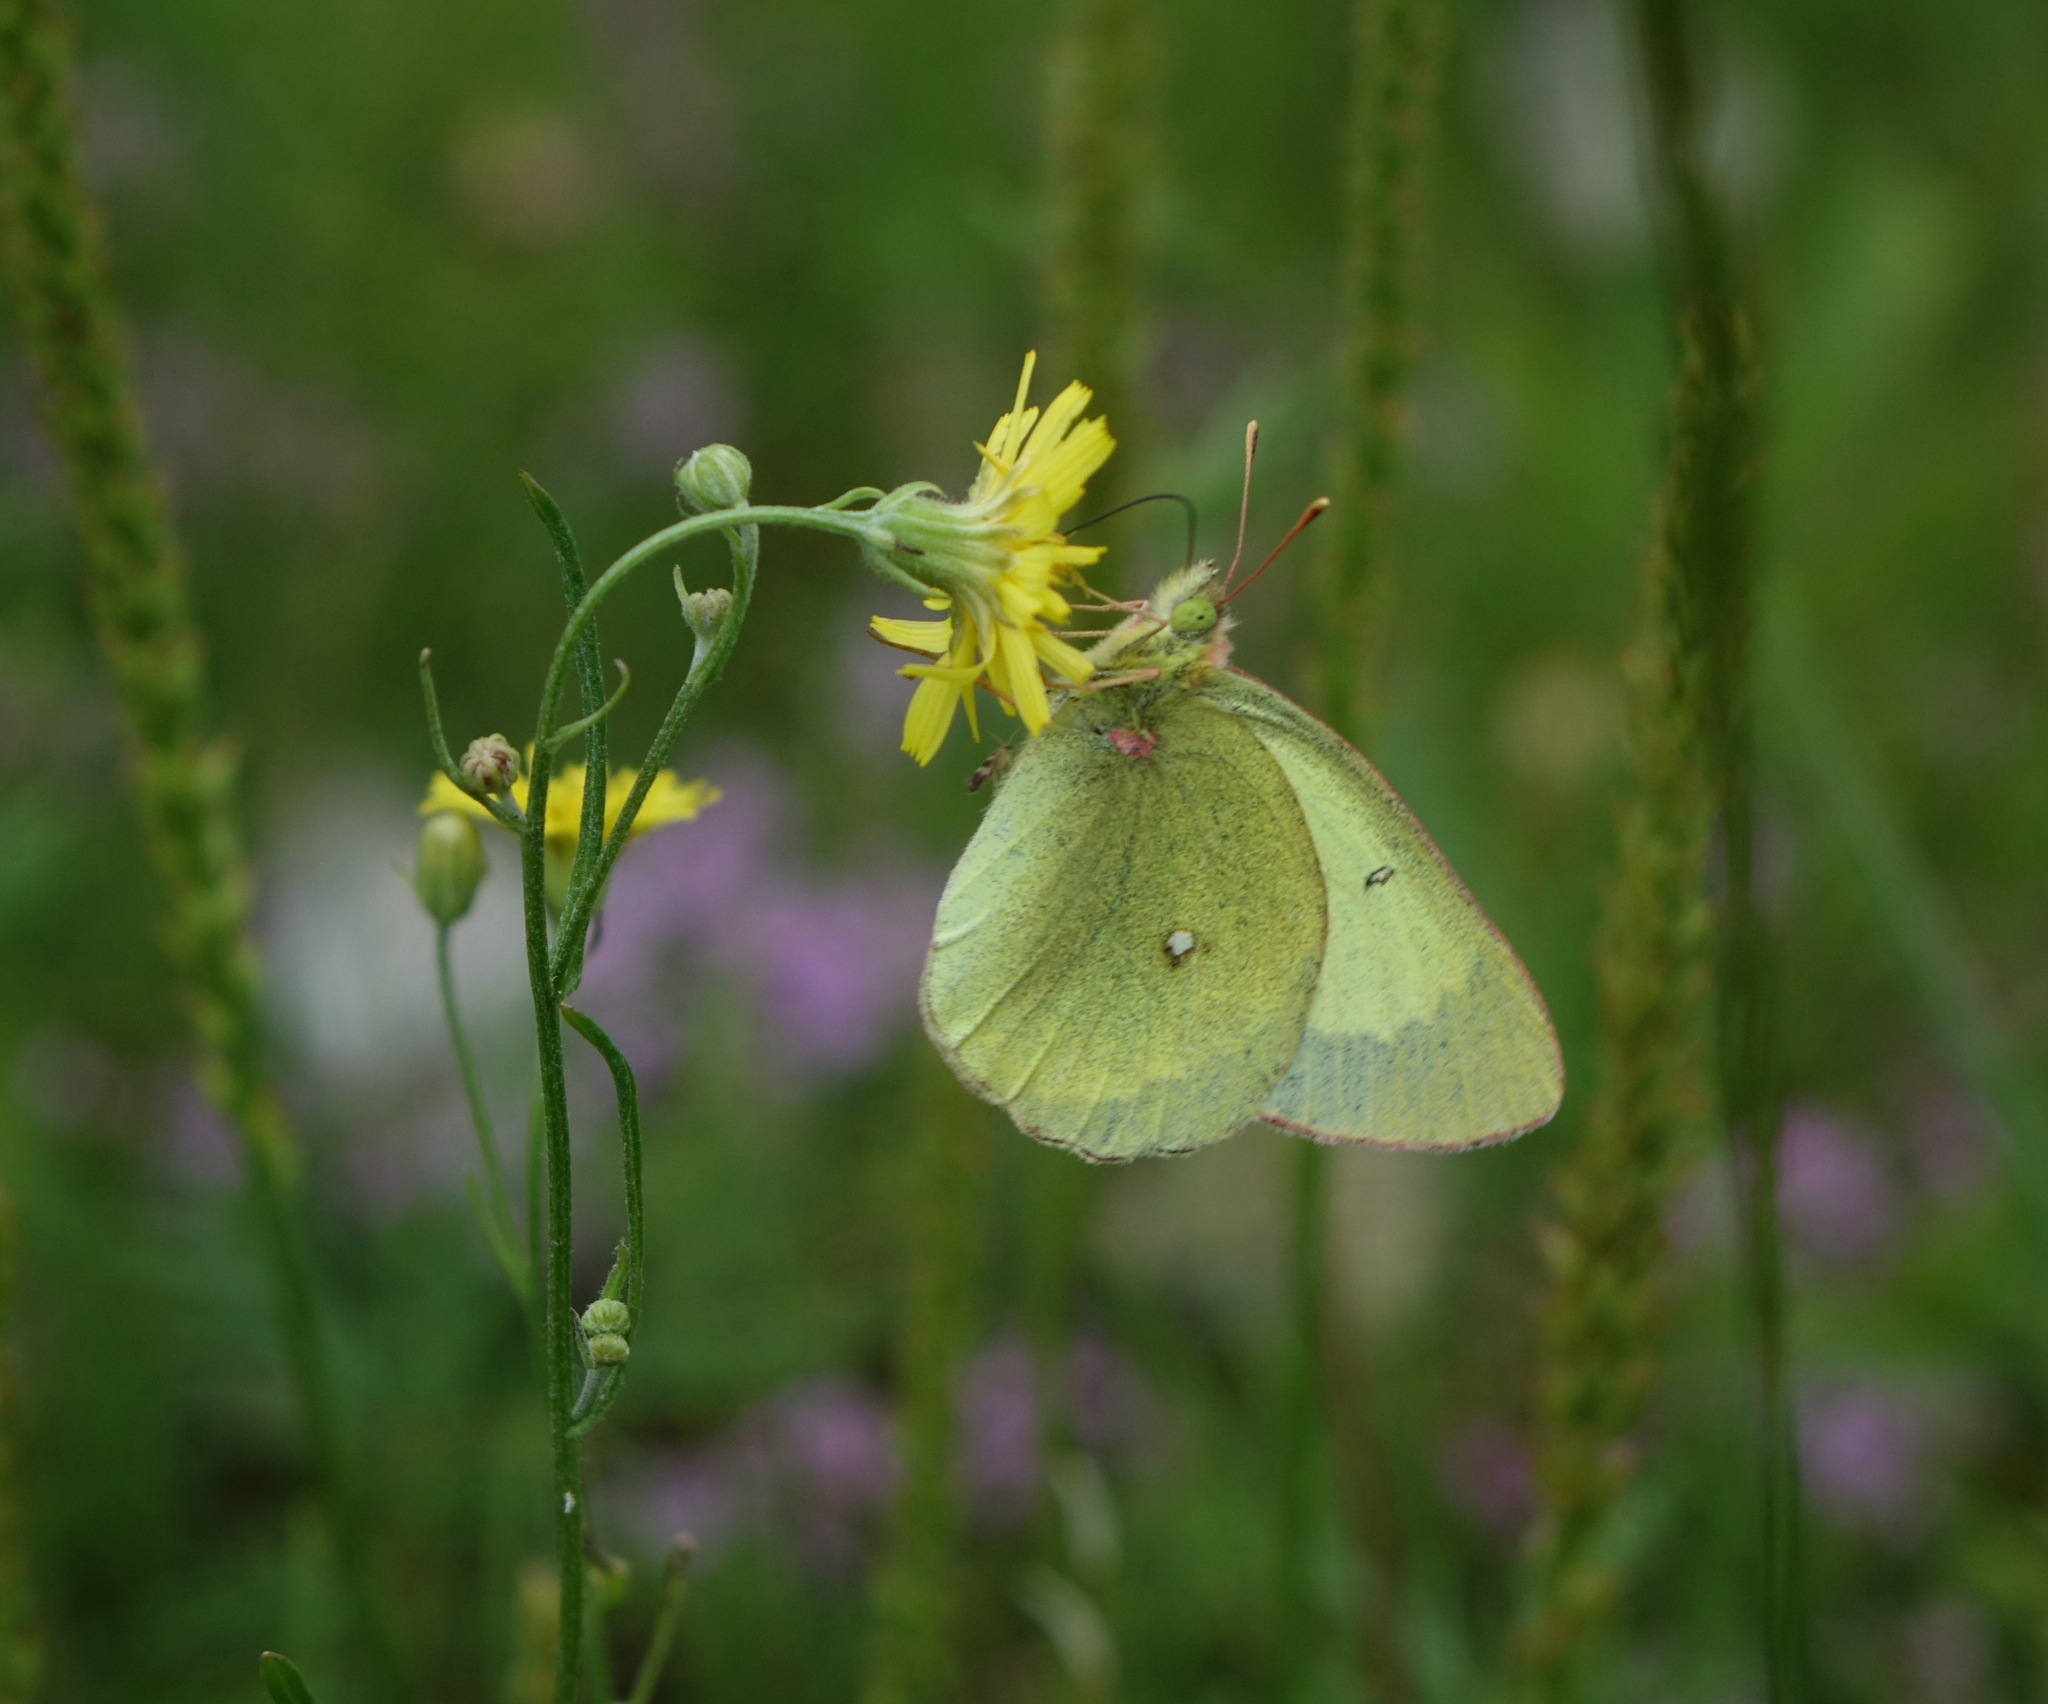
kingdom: Animalia
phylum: Arthropoda
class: Insecta
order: Lepidoptera
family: Pieridae
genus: Colias
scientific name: Colias palaeno
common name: Moorland clouded yellow
